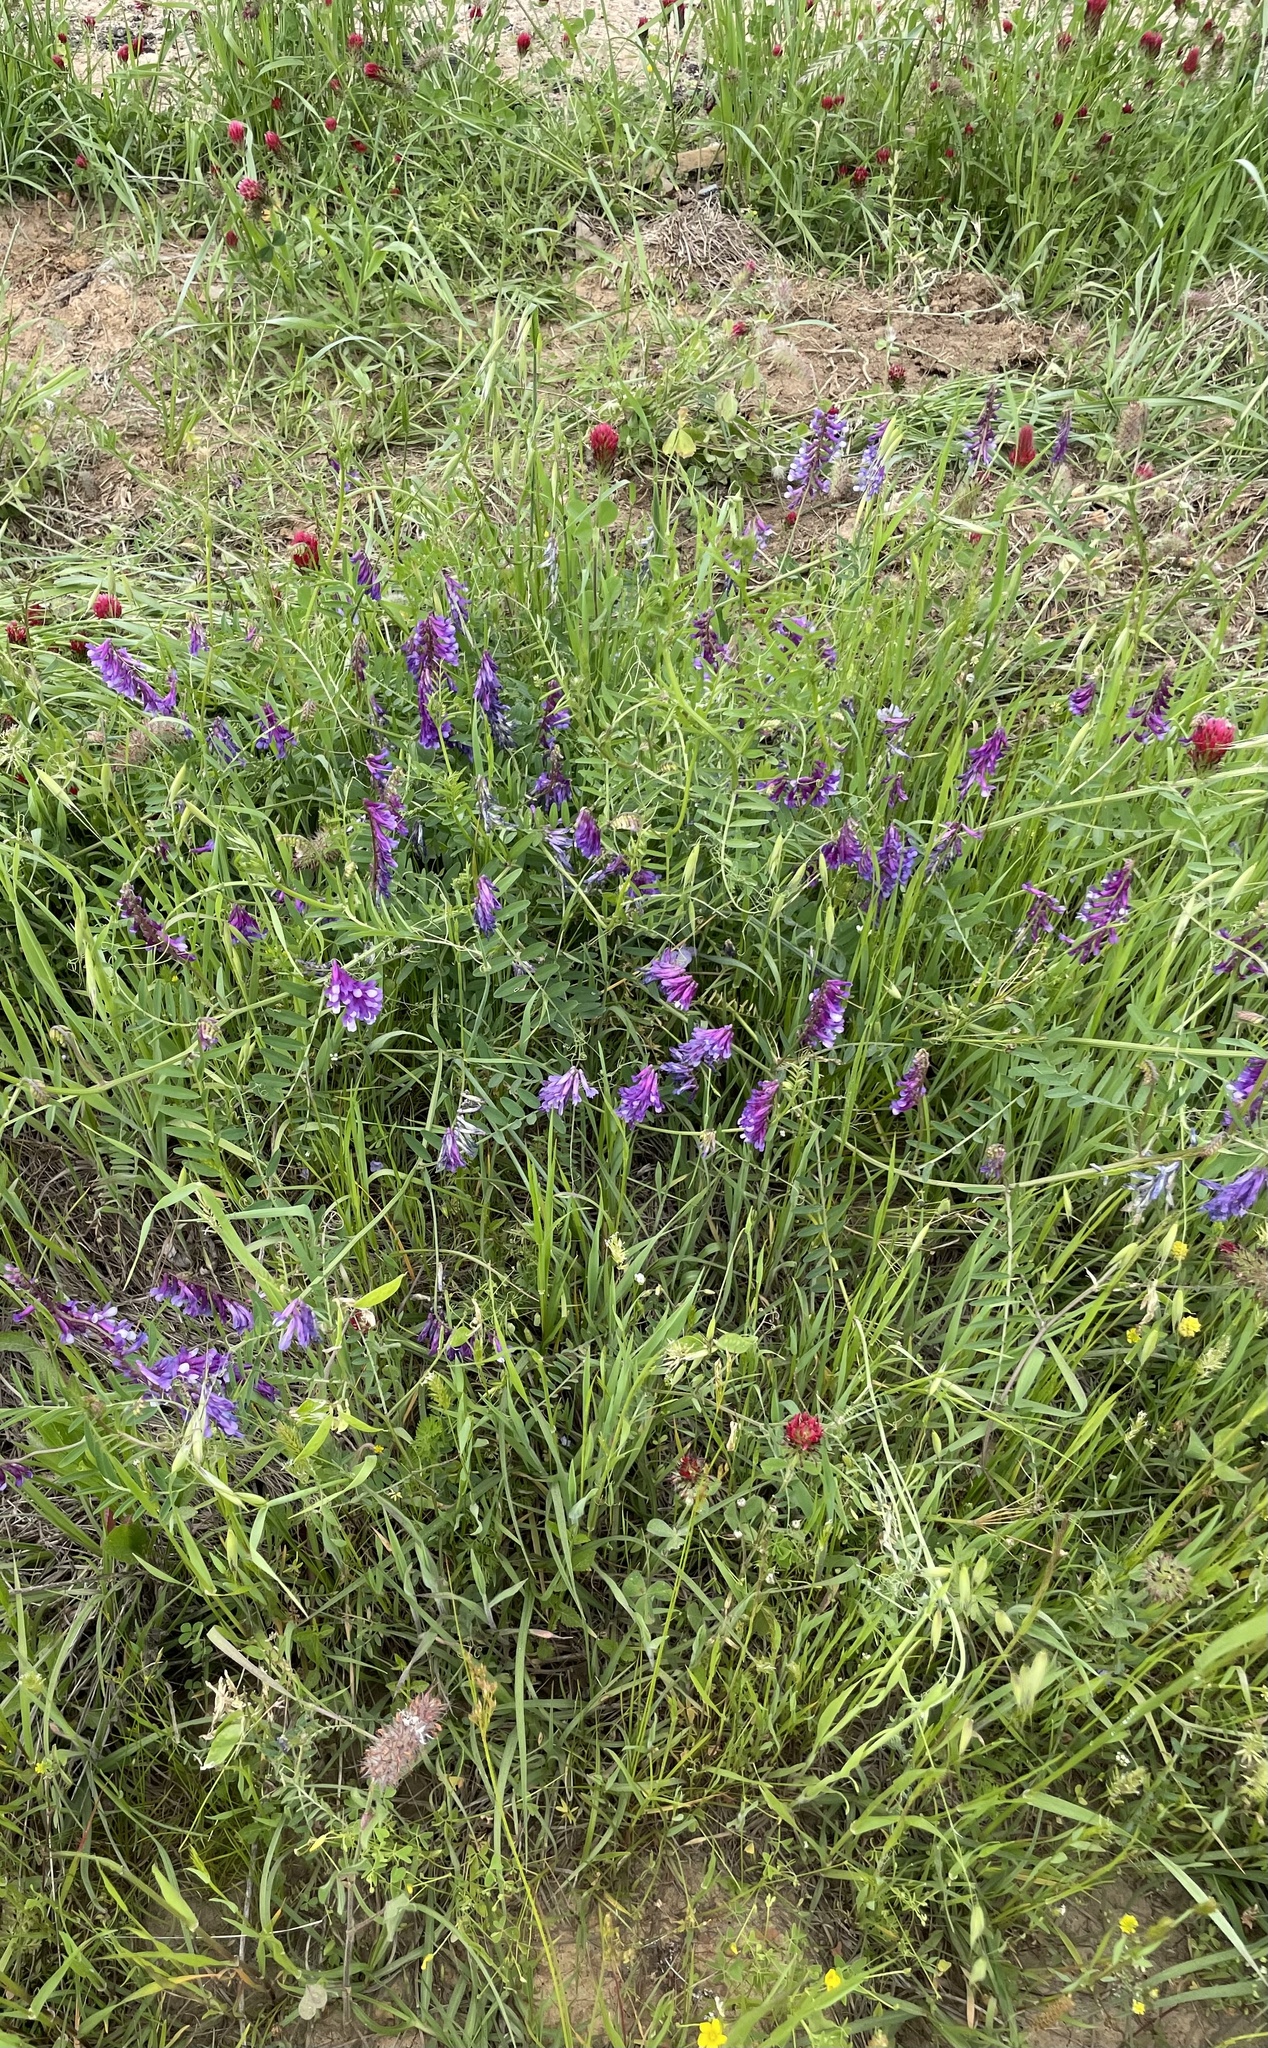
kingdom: Plantae
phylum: Tracheophyta
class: Magnoliopsida
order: Fabales
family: Fabaceae
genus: Vicia
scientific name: Vicia villosa
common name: Fodder vetch
